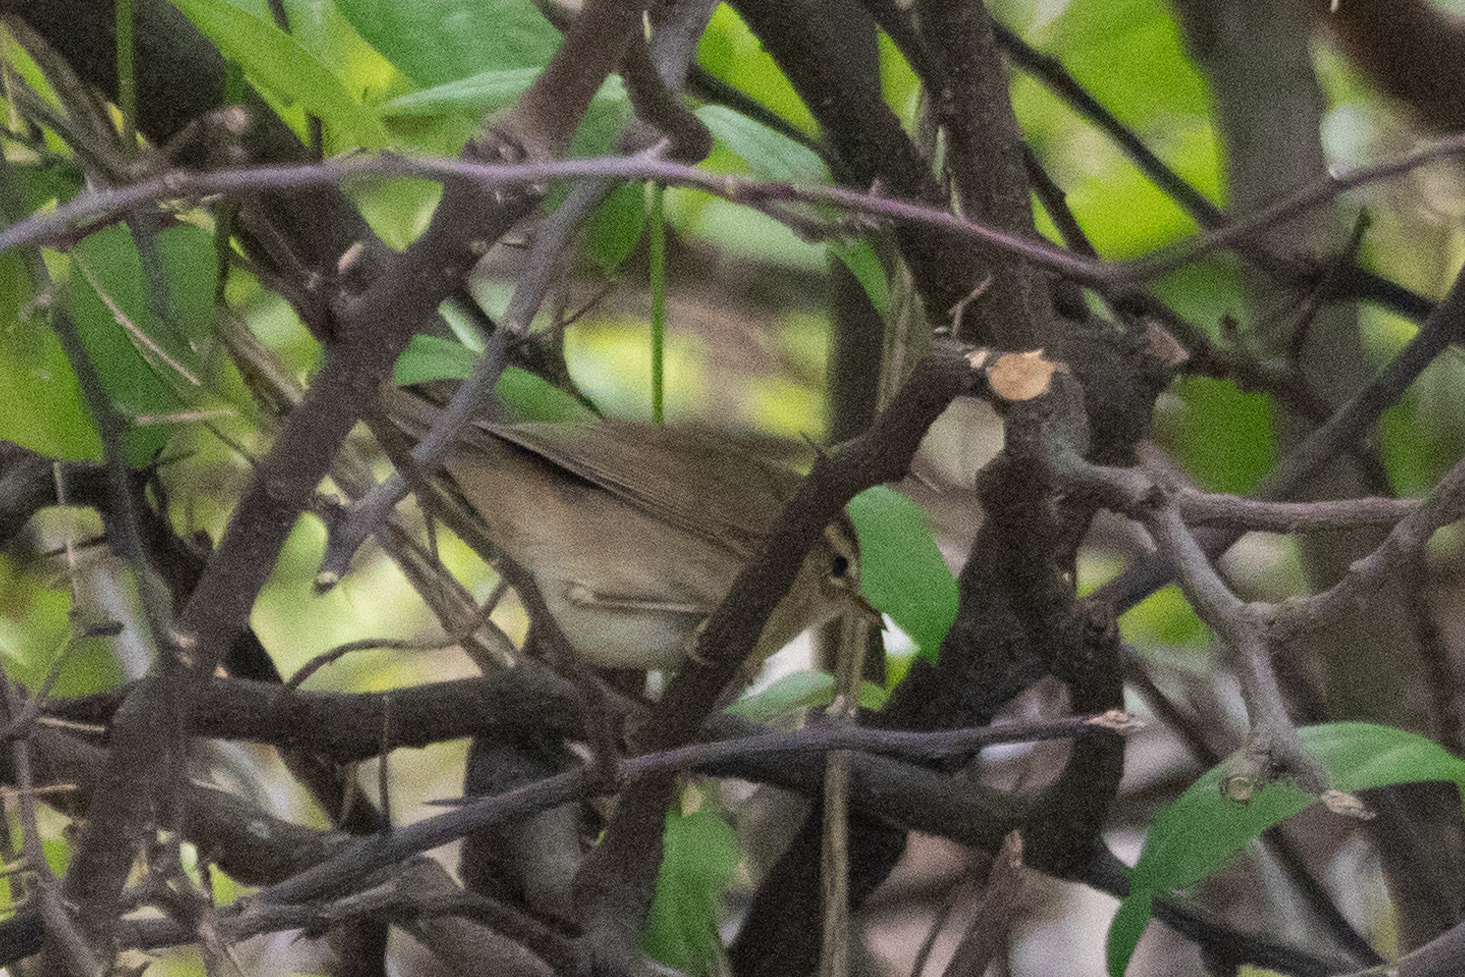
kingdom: Animalia
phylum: Chordata
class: Aves
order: Passeriformes
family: Phylloscopidae
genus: Phylloscopus
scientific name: Phylloscopus fuscatus
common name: Dusky warbler
